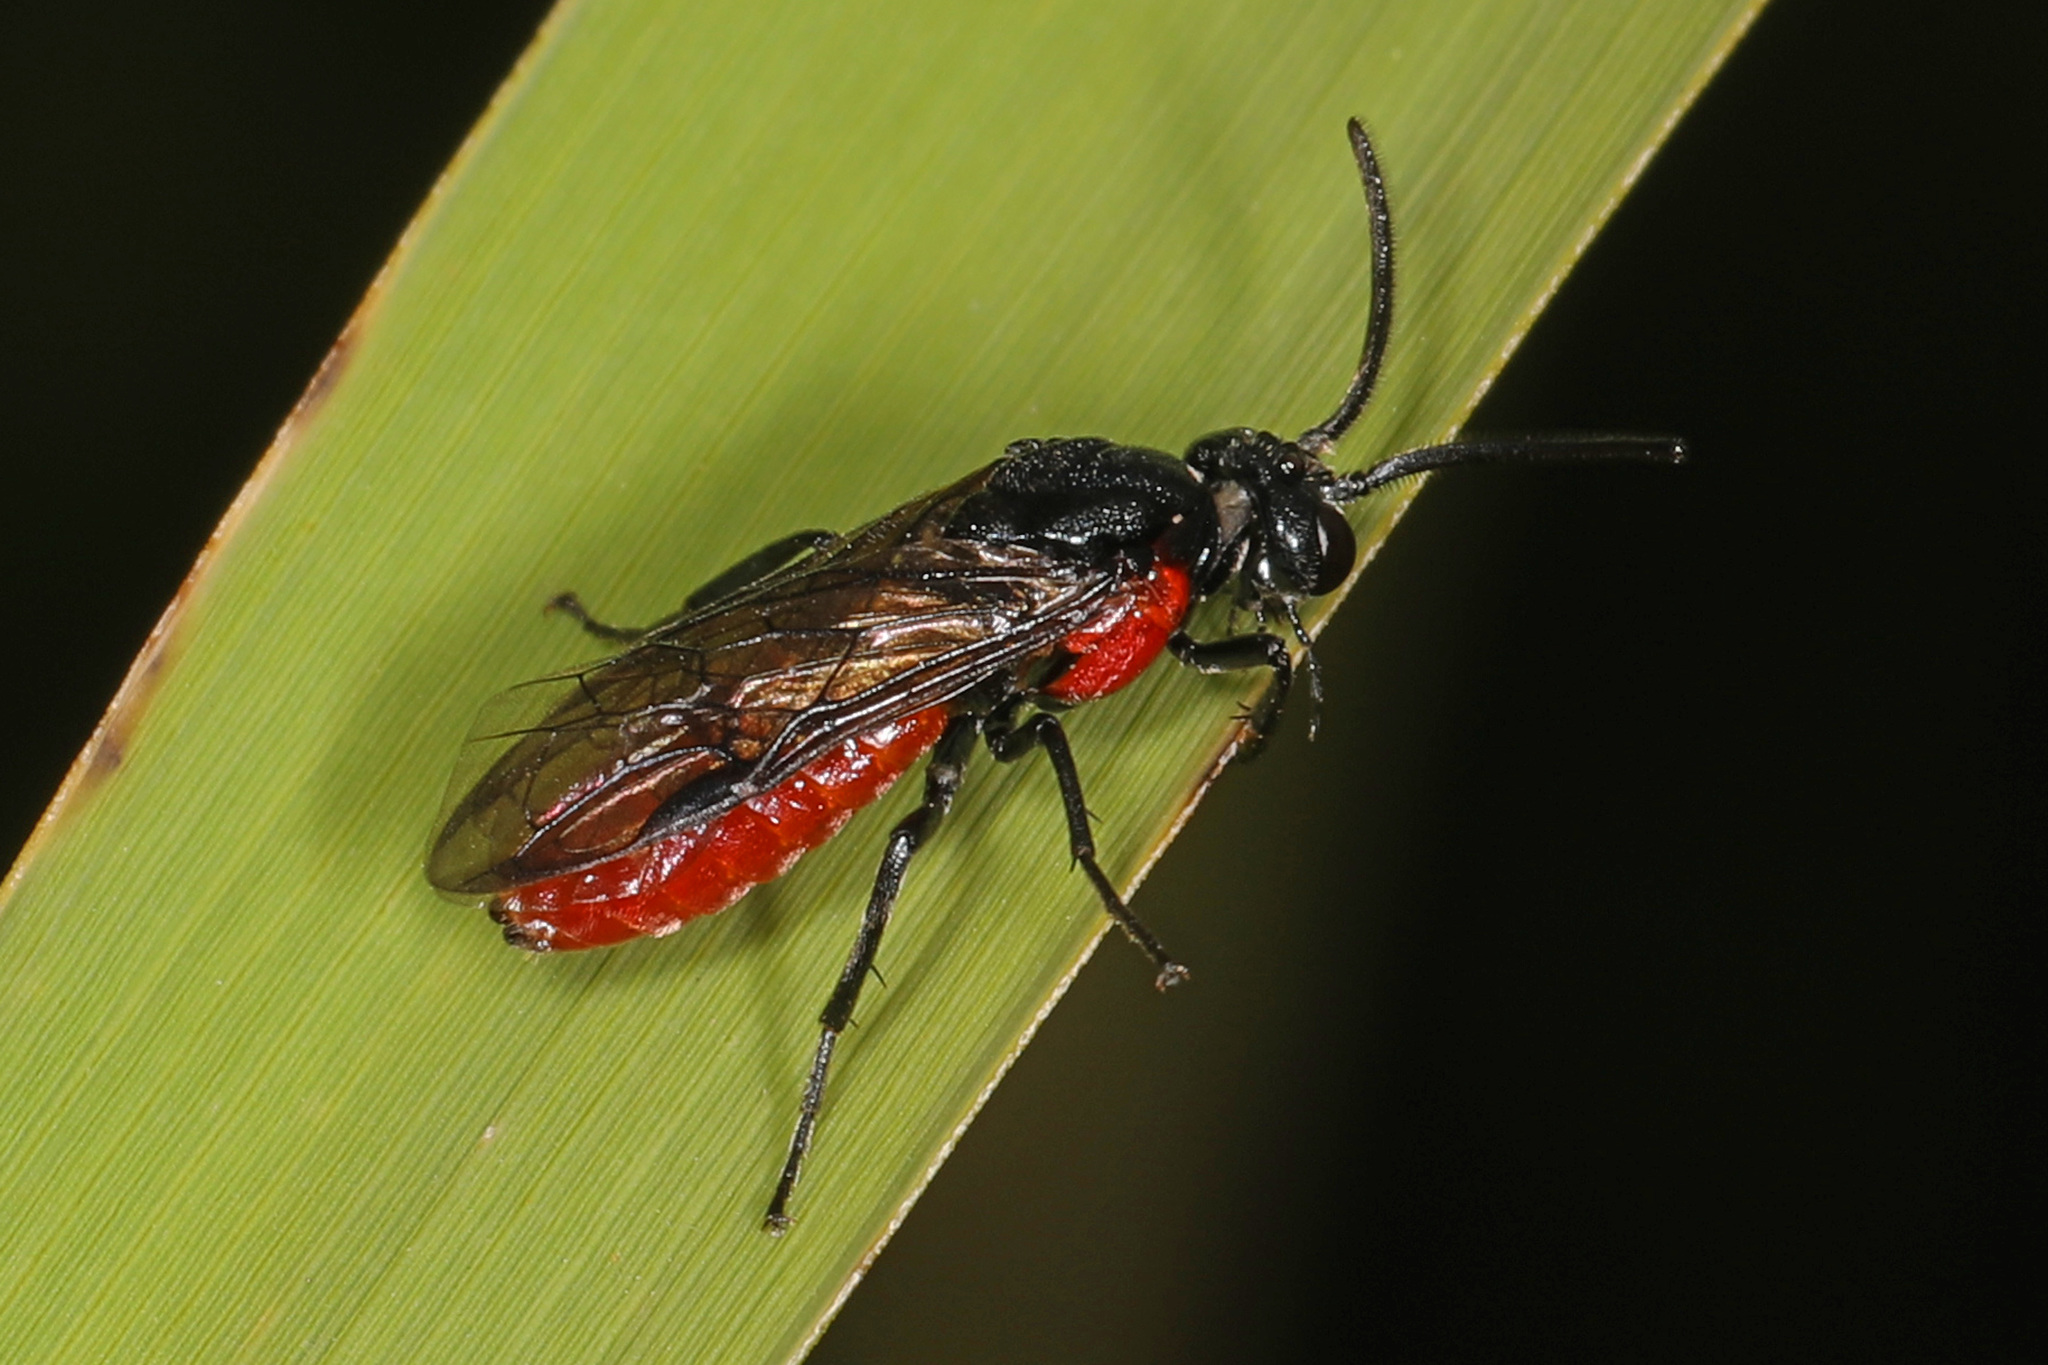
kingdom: Animalia
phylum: Arthropoda
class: Insecta
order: Hymenoptera
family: Argidae
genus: Arge
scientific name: Arge humeralis
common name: Poison ivy sawfly
